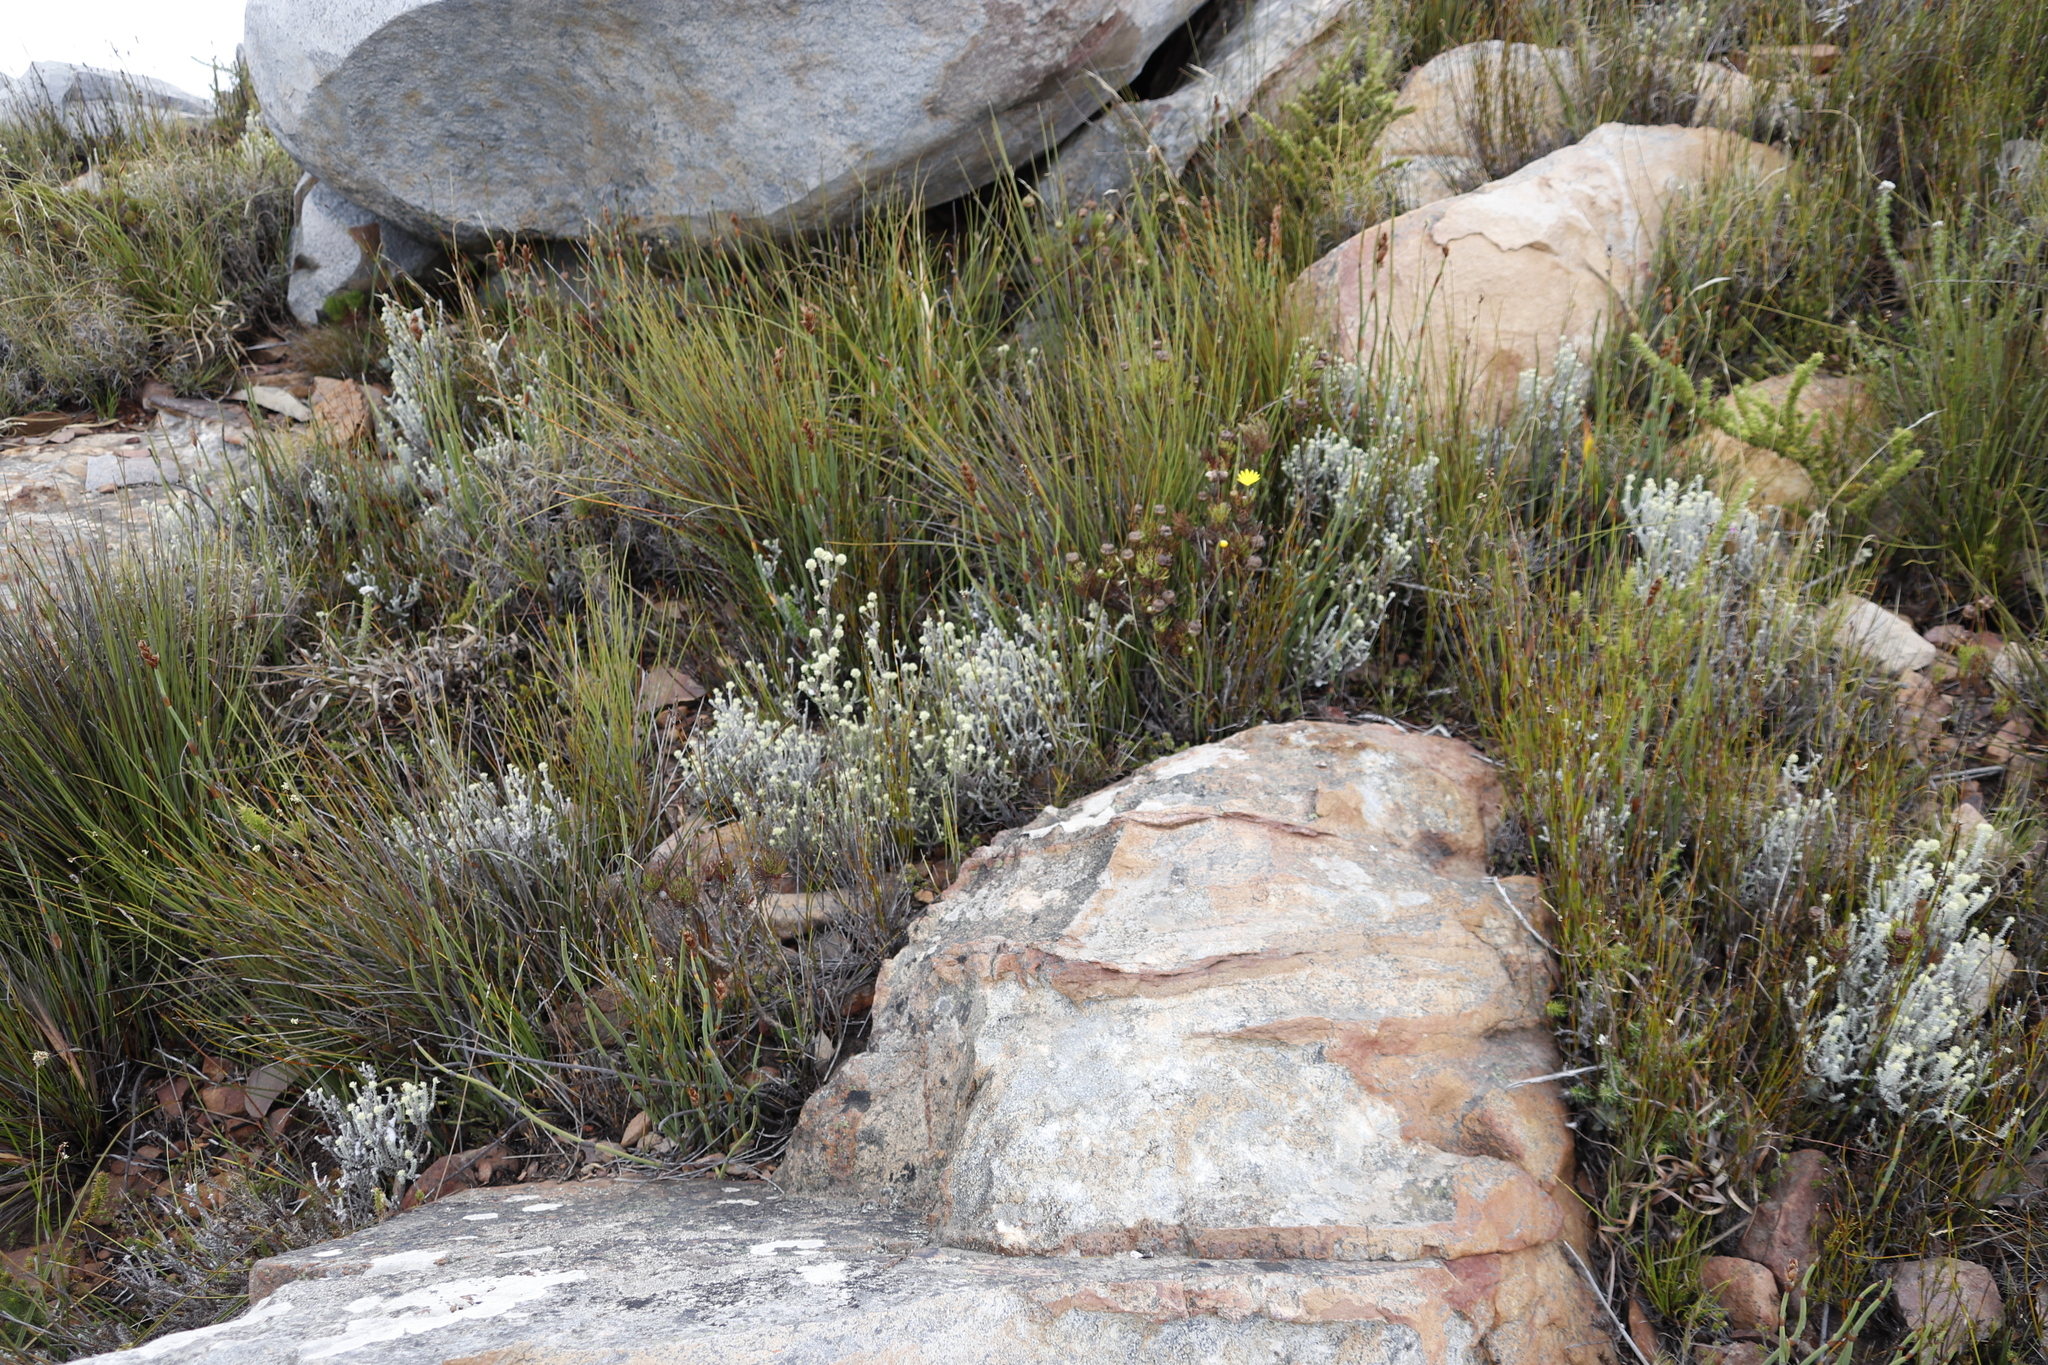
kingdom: Plantae
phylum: Tracheophyta
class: Magnoliopsida
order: Asterales
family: Asteraceae
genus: Seriphium
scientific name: Seriphium spirale
